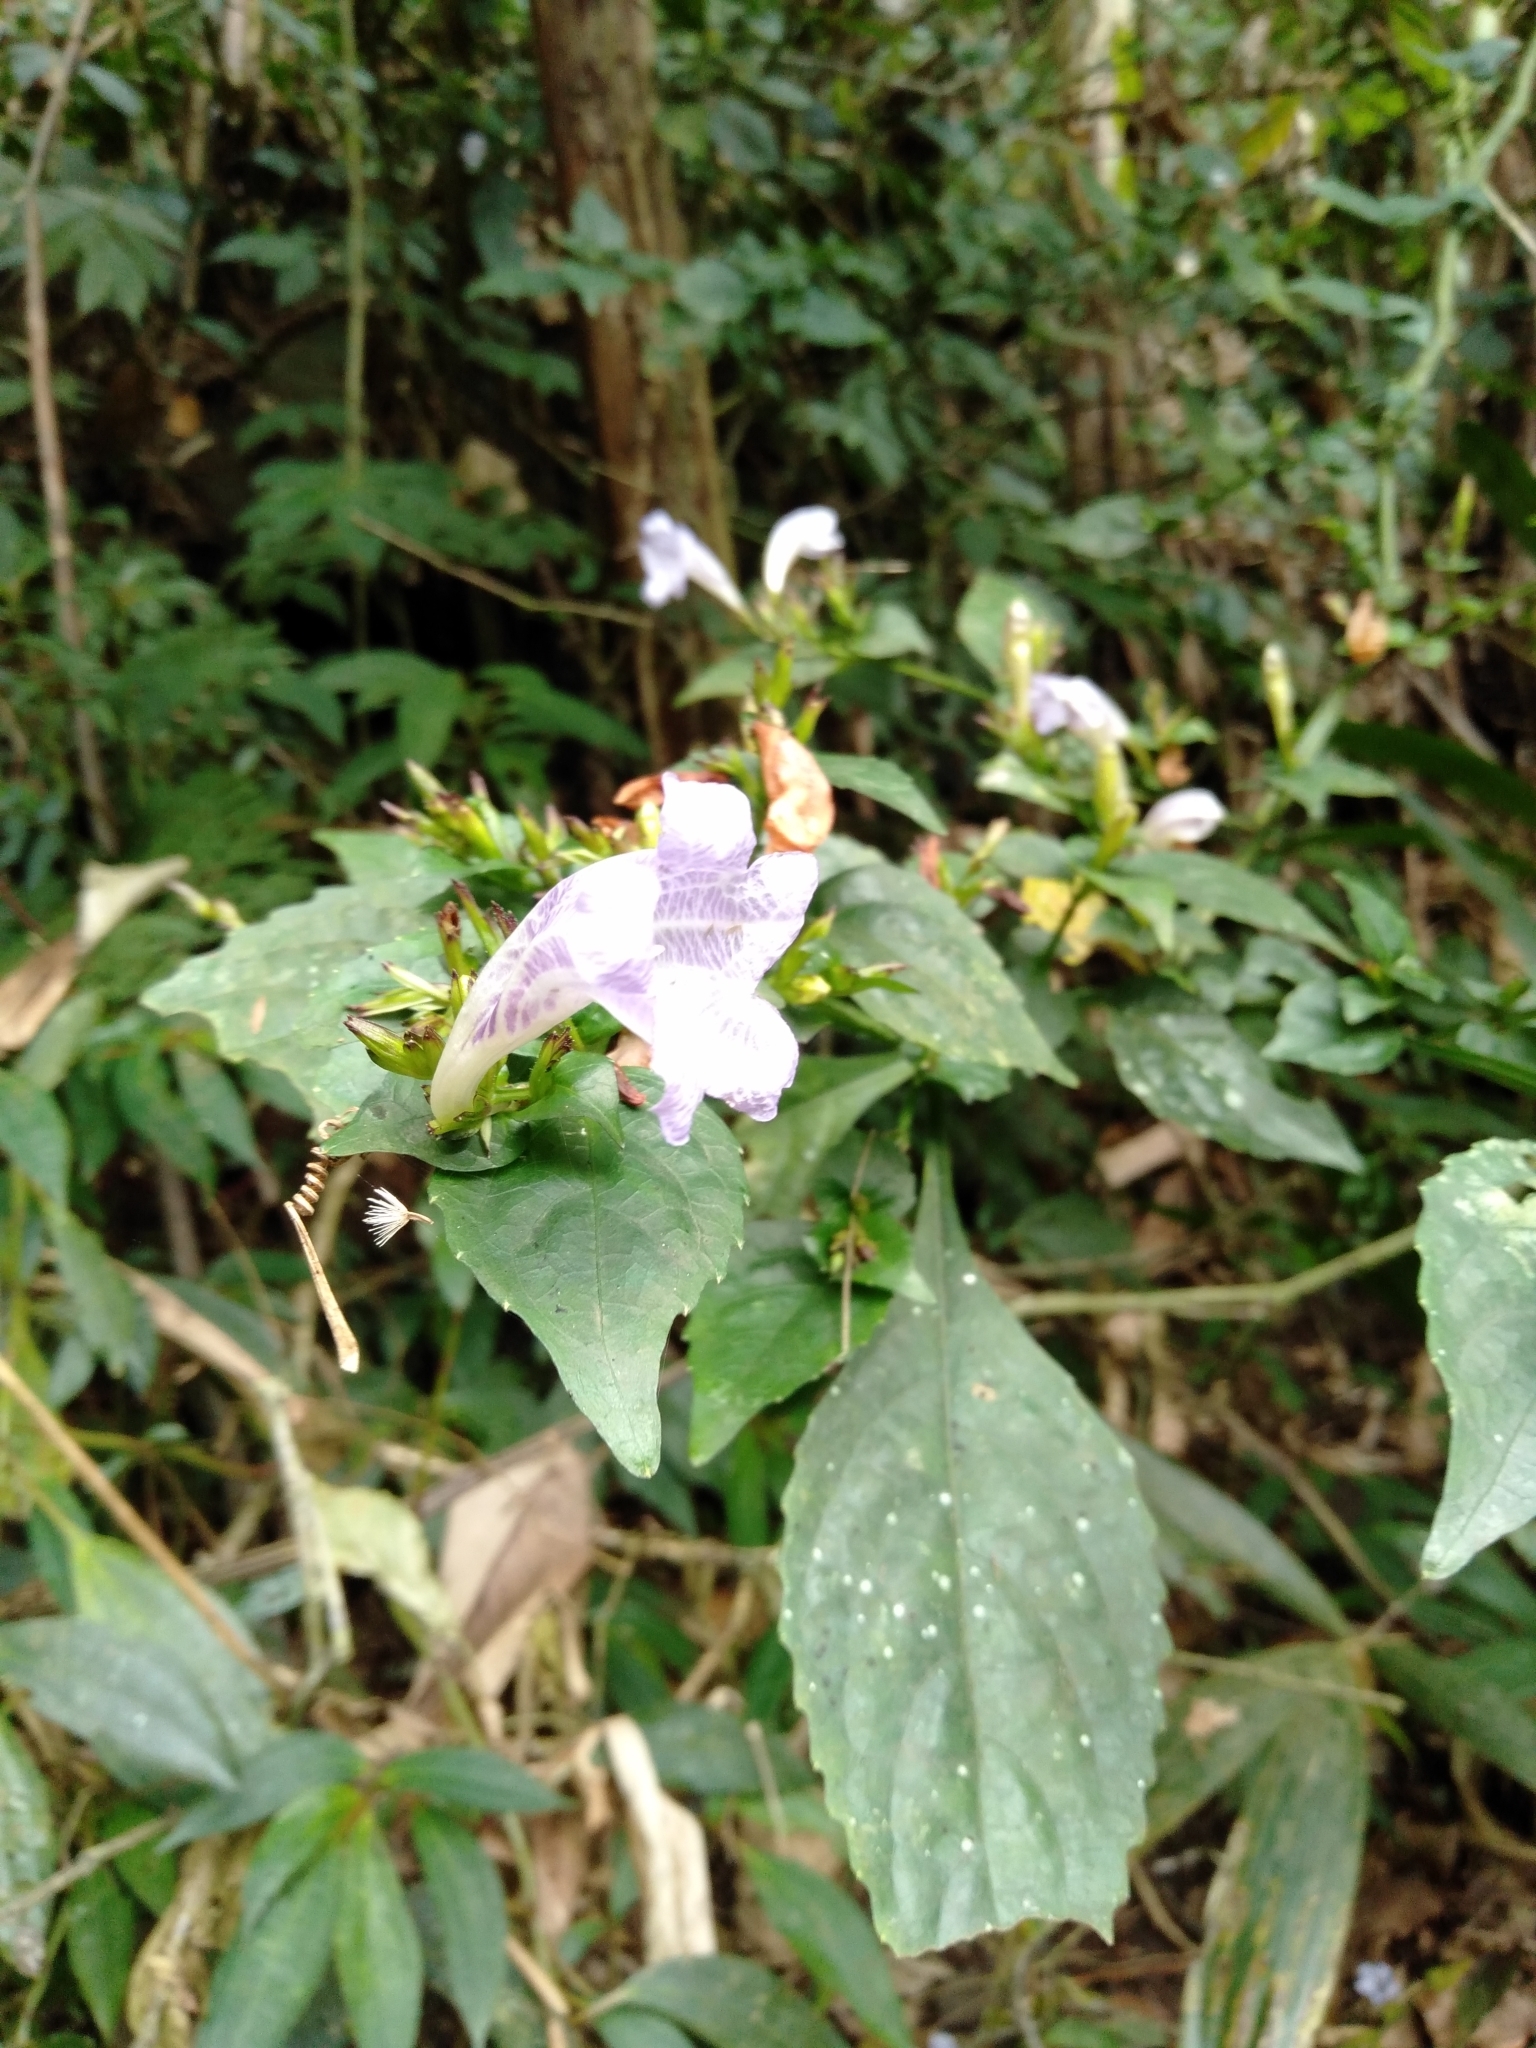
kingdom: Plantae
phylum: Tracheophyta
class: Magnoliopsida
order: Lamiales
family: Acanthaceae
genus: Strobilanthes
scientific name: Strobilanthes flexicaulis
